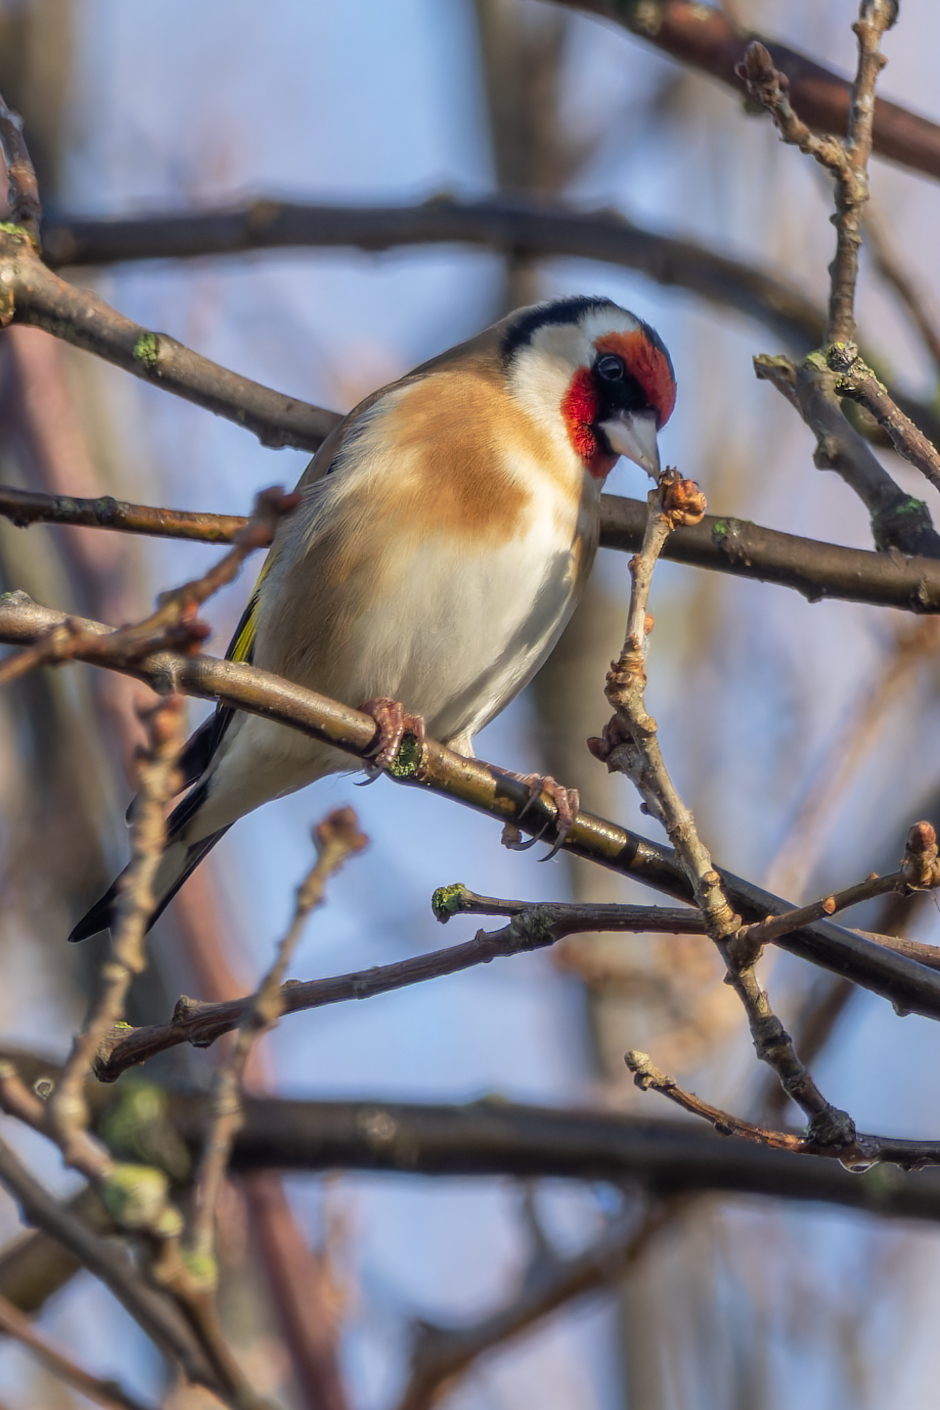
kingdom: Animalia
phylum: Chordata
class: Aves
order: Passeriformes
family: Fringillidae
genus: Carduelis
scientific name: Carduelis carduelis
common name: European goldfinch
